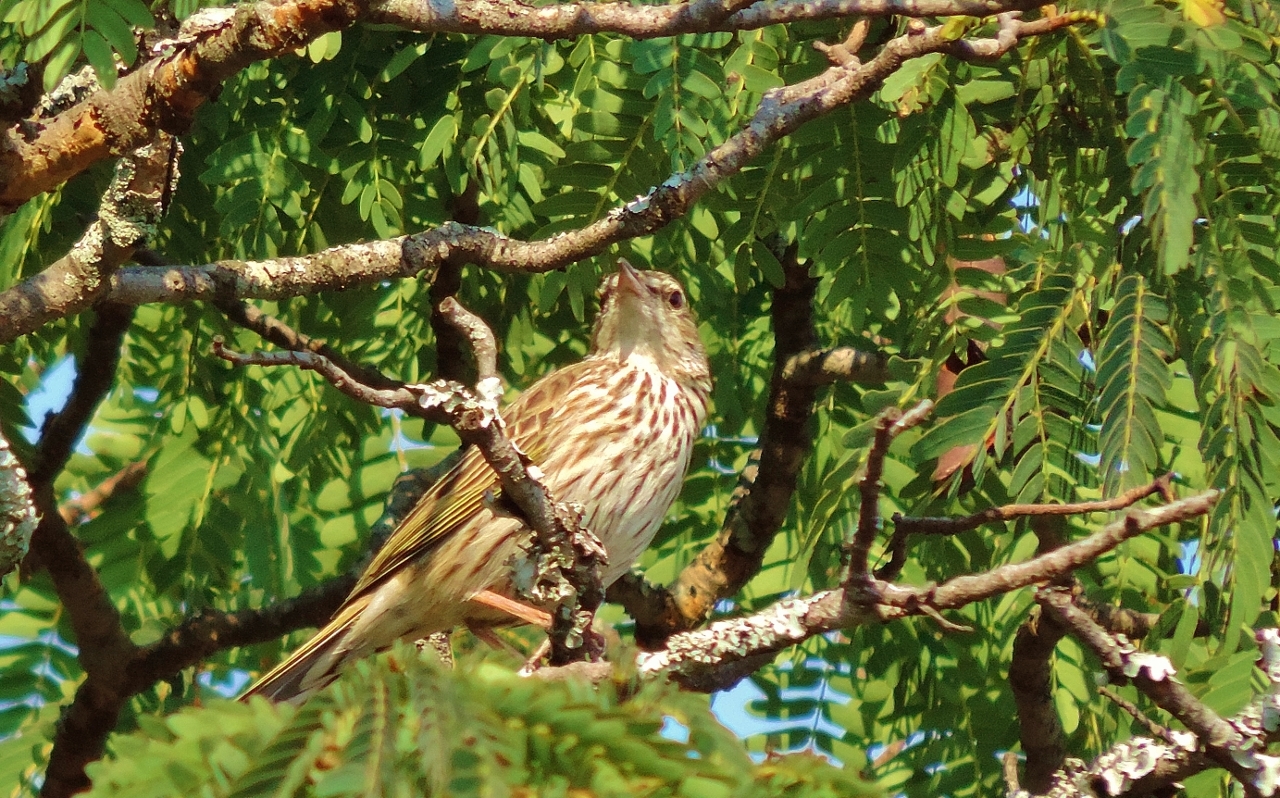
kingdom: Animalia
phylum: Chordata
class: Aves
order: Passeriformes
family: Motacillidae
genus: Anthus
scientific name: Anthus lineiventris
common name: Striped pipit
